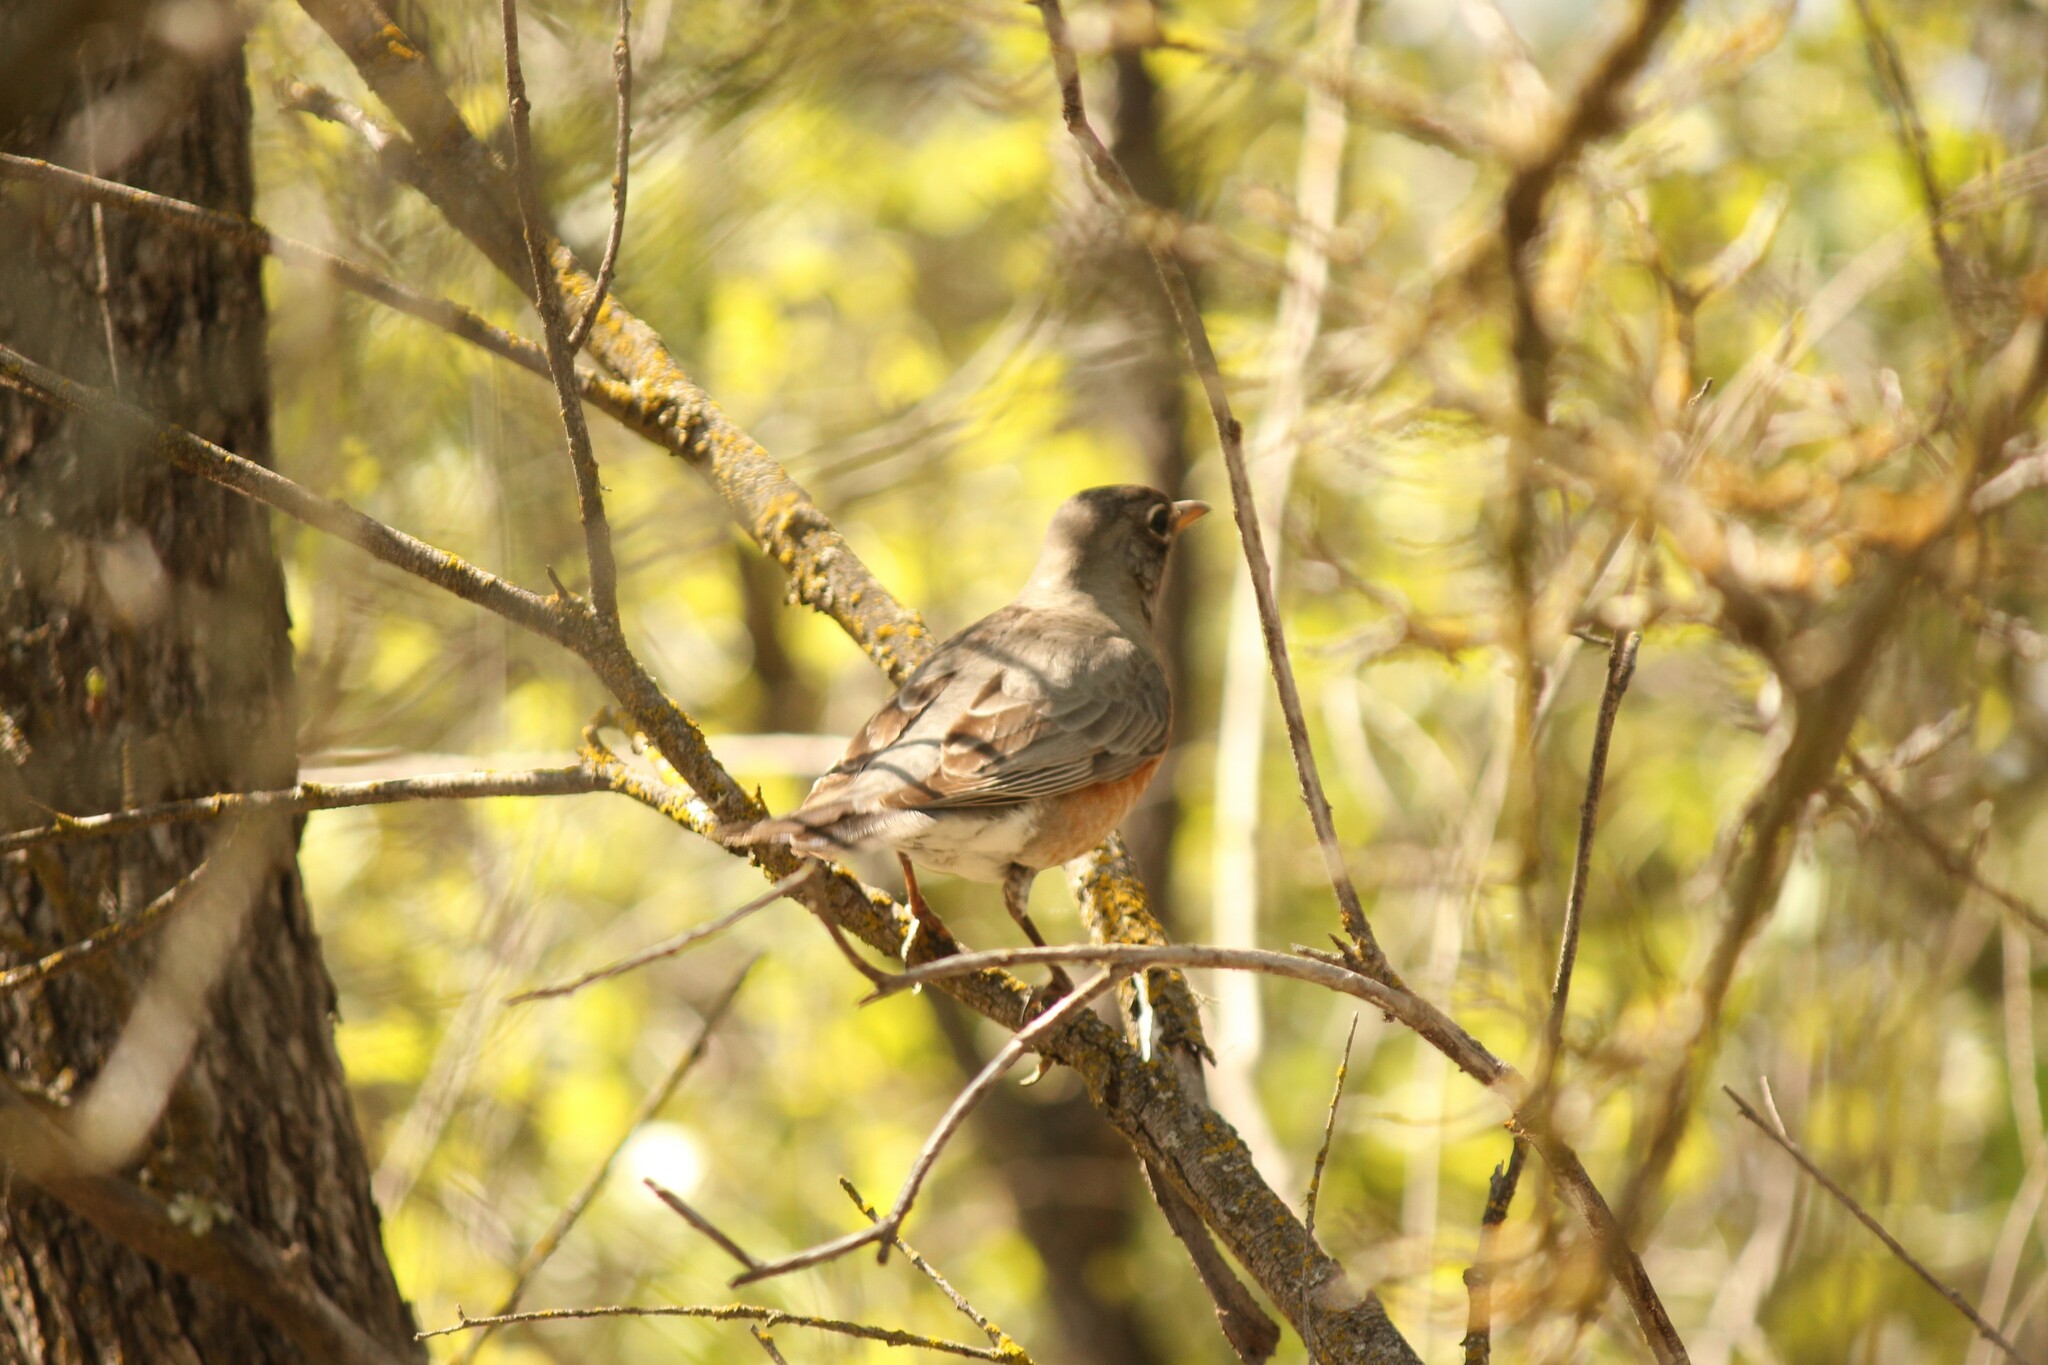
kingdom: Animalia
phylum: Chordata
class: Aves
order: Passeriformes
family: Turdidae
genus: Turdus
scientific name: Turdus migratorius
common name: American robin
